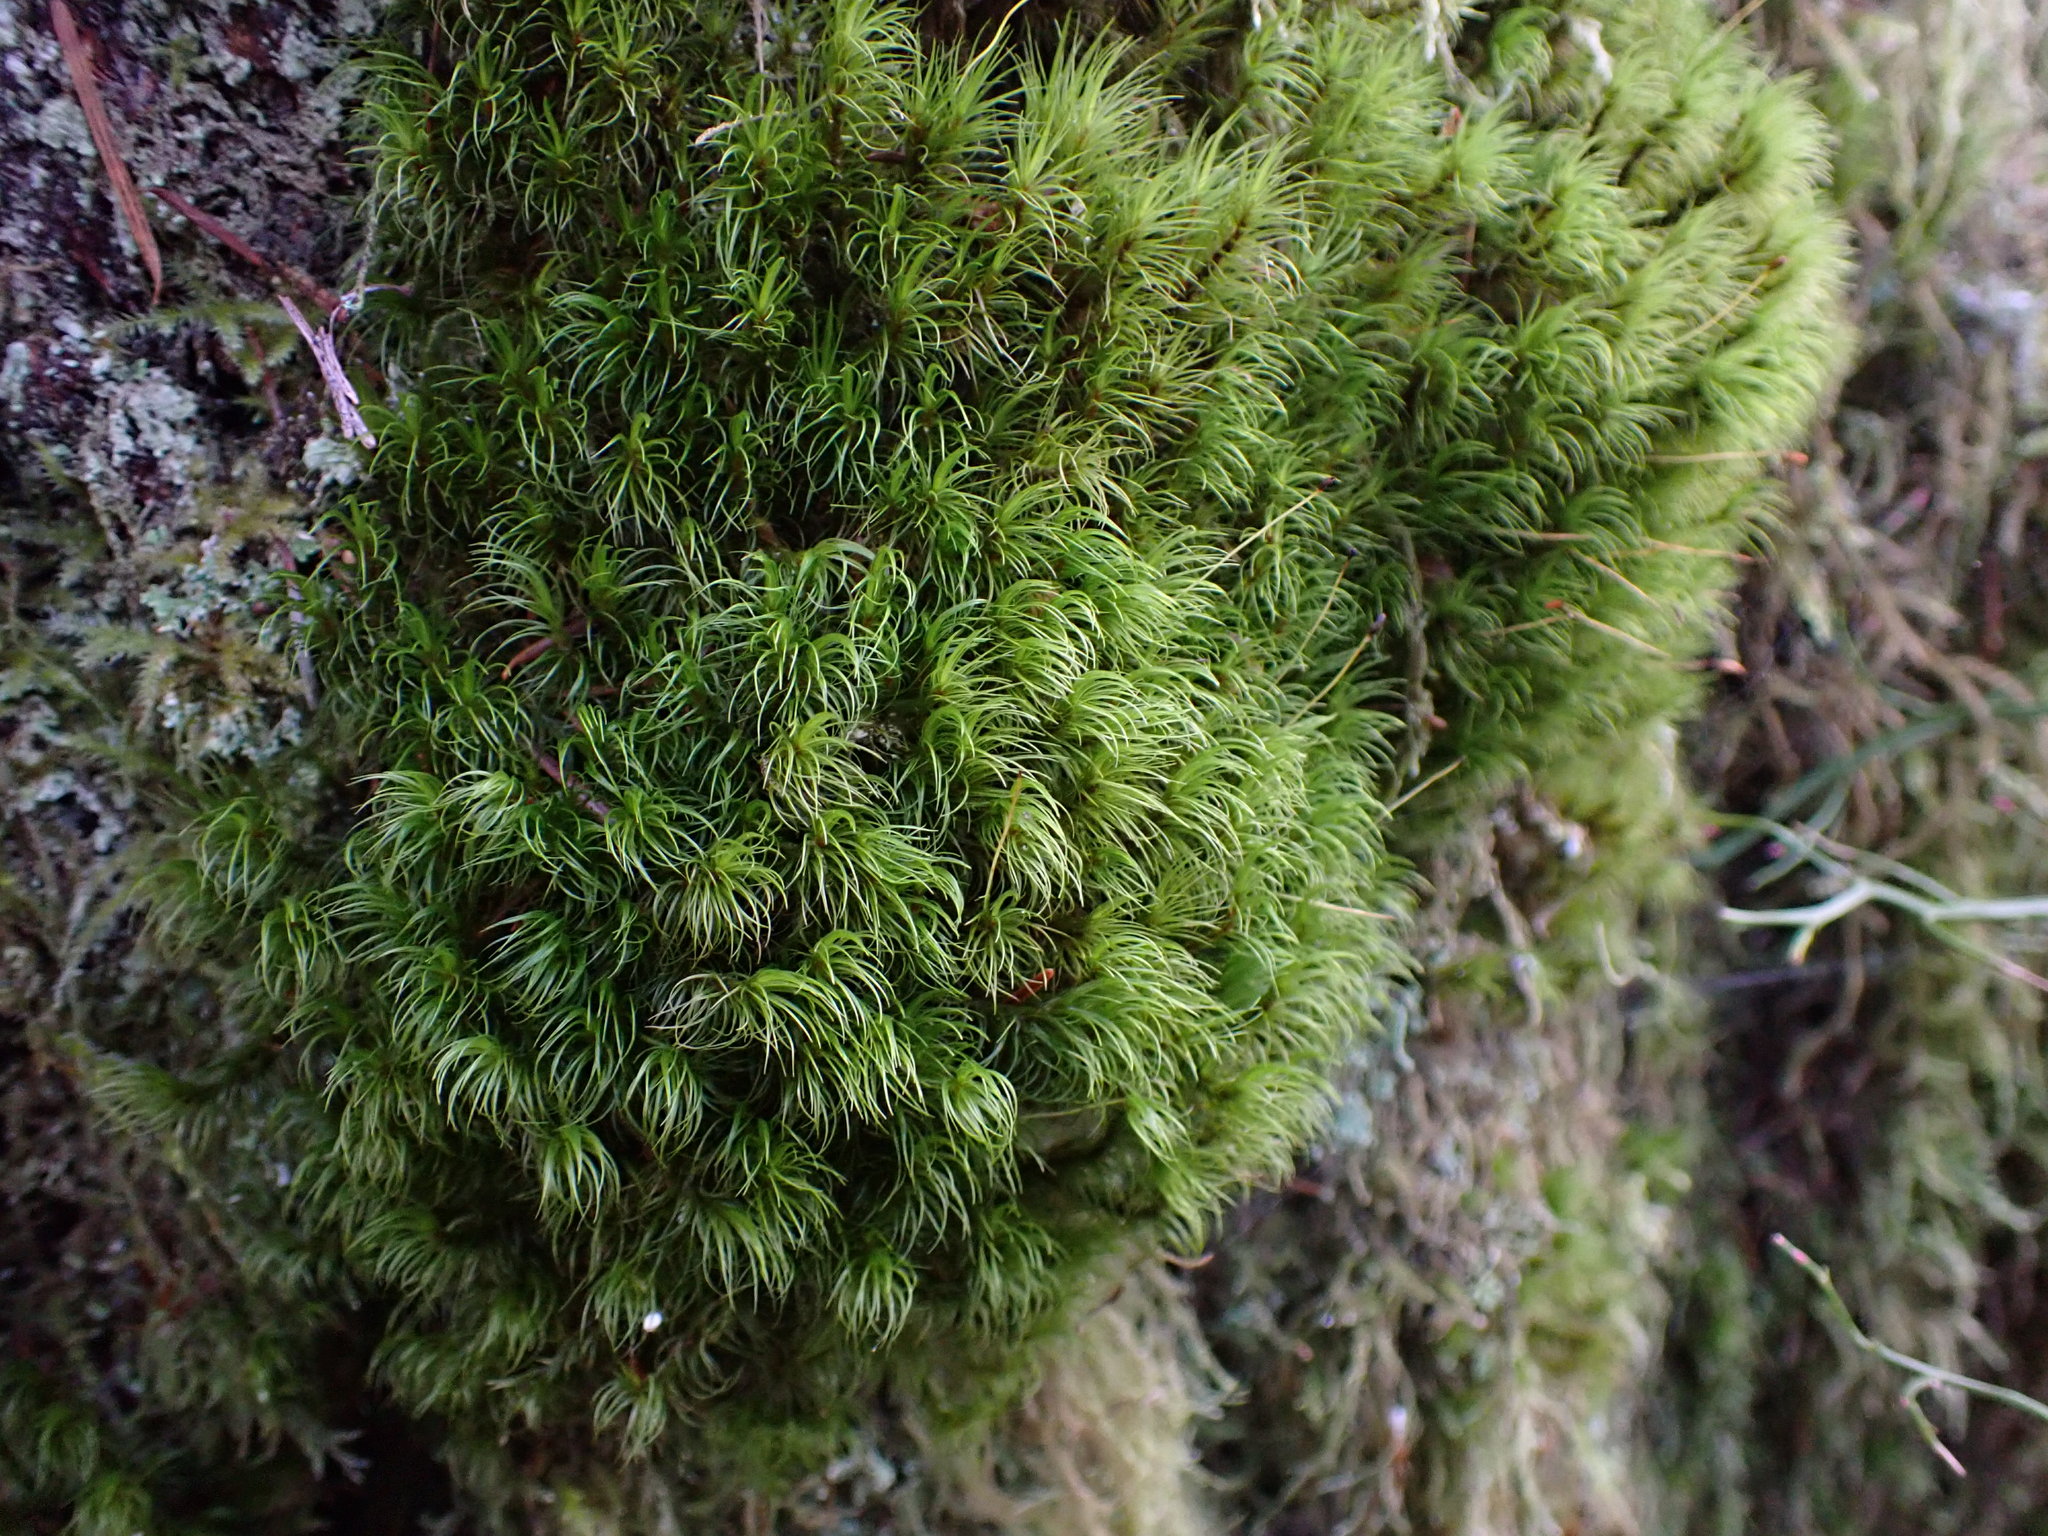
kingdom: Plantae
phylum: Bryophyta
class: Bryopsida
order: Dicranales
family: Dicranaceae
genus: Dicranum
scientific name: Dicranum fuscescens
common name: Curly heron's-bill moss
